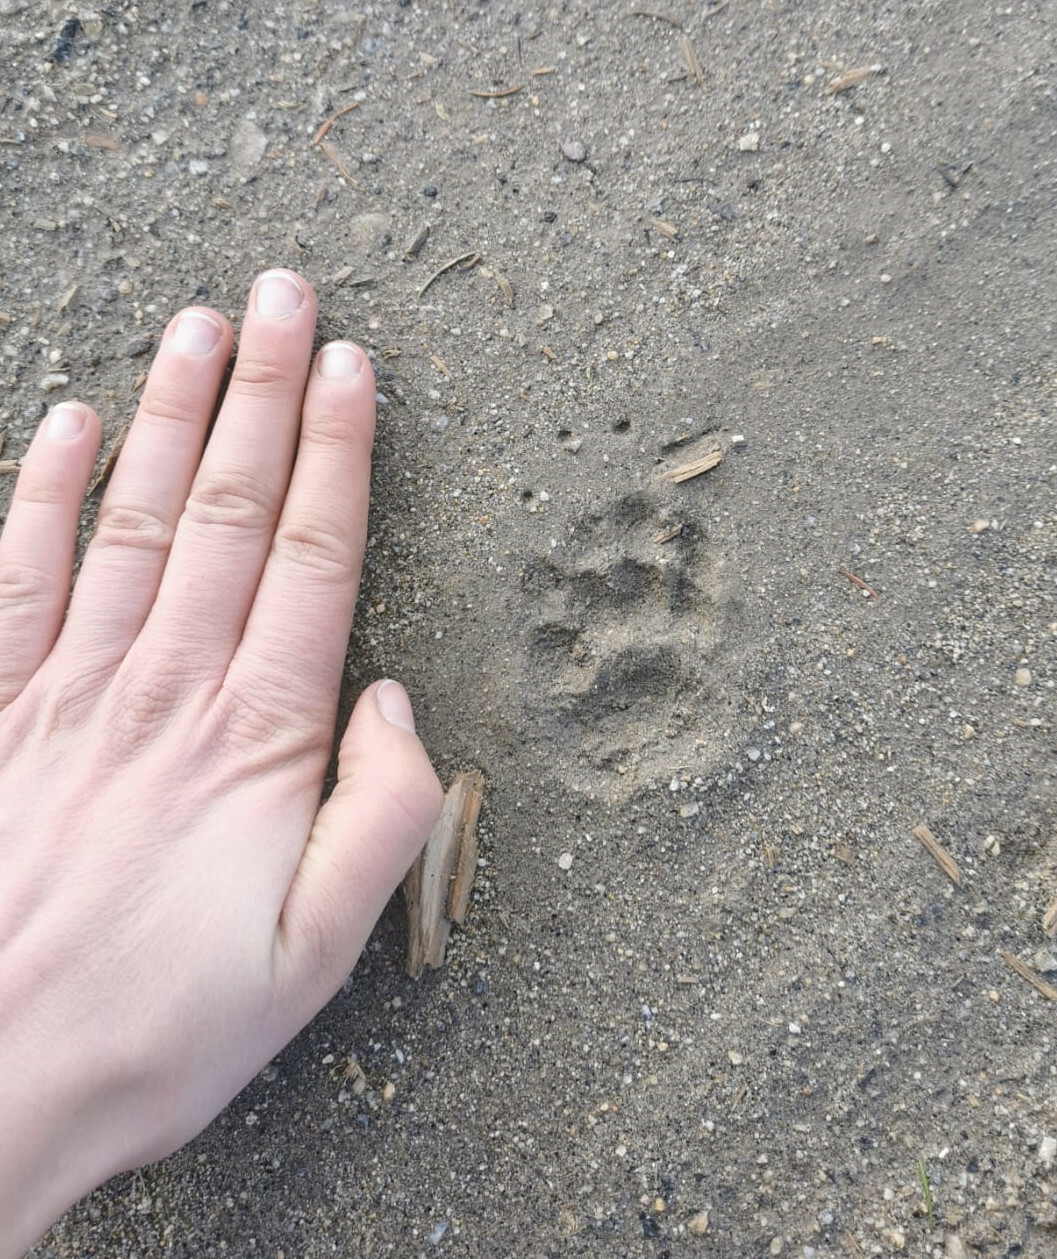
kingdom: Animalia
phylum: Chordata
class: Mammalia
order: Carnivora
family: Mustelidae
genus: Meles
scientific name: Meles meles
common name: Eurasian badger
